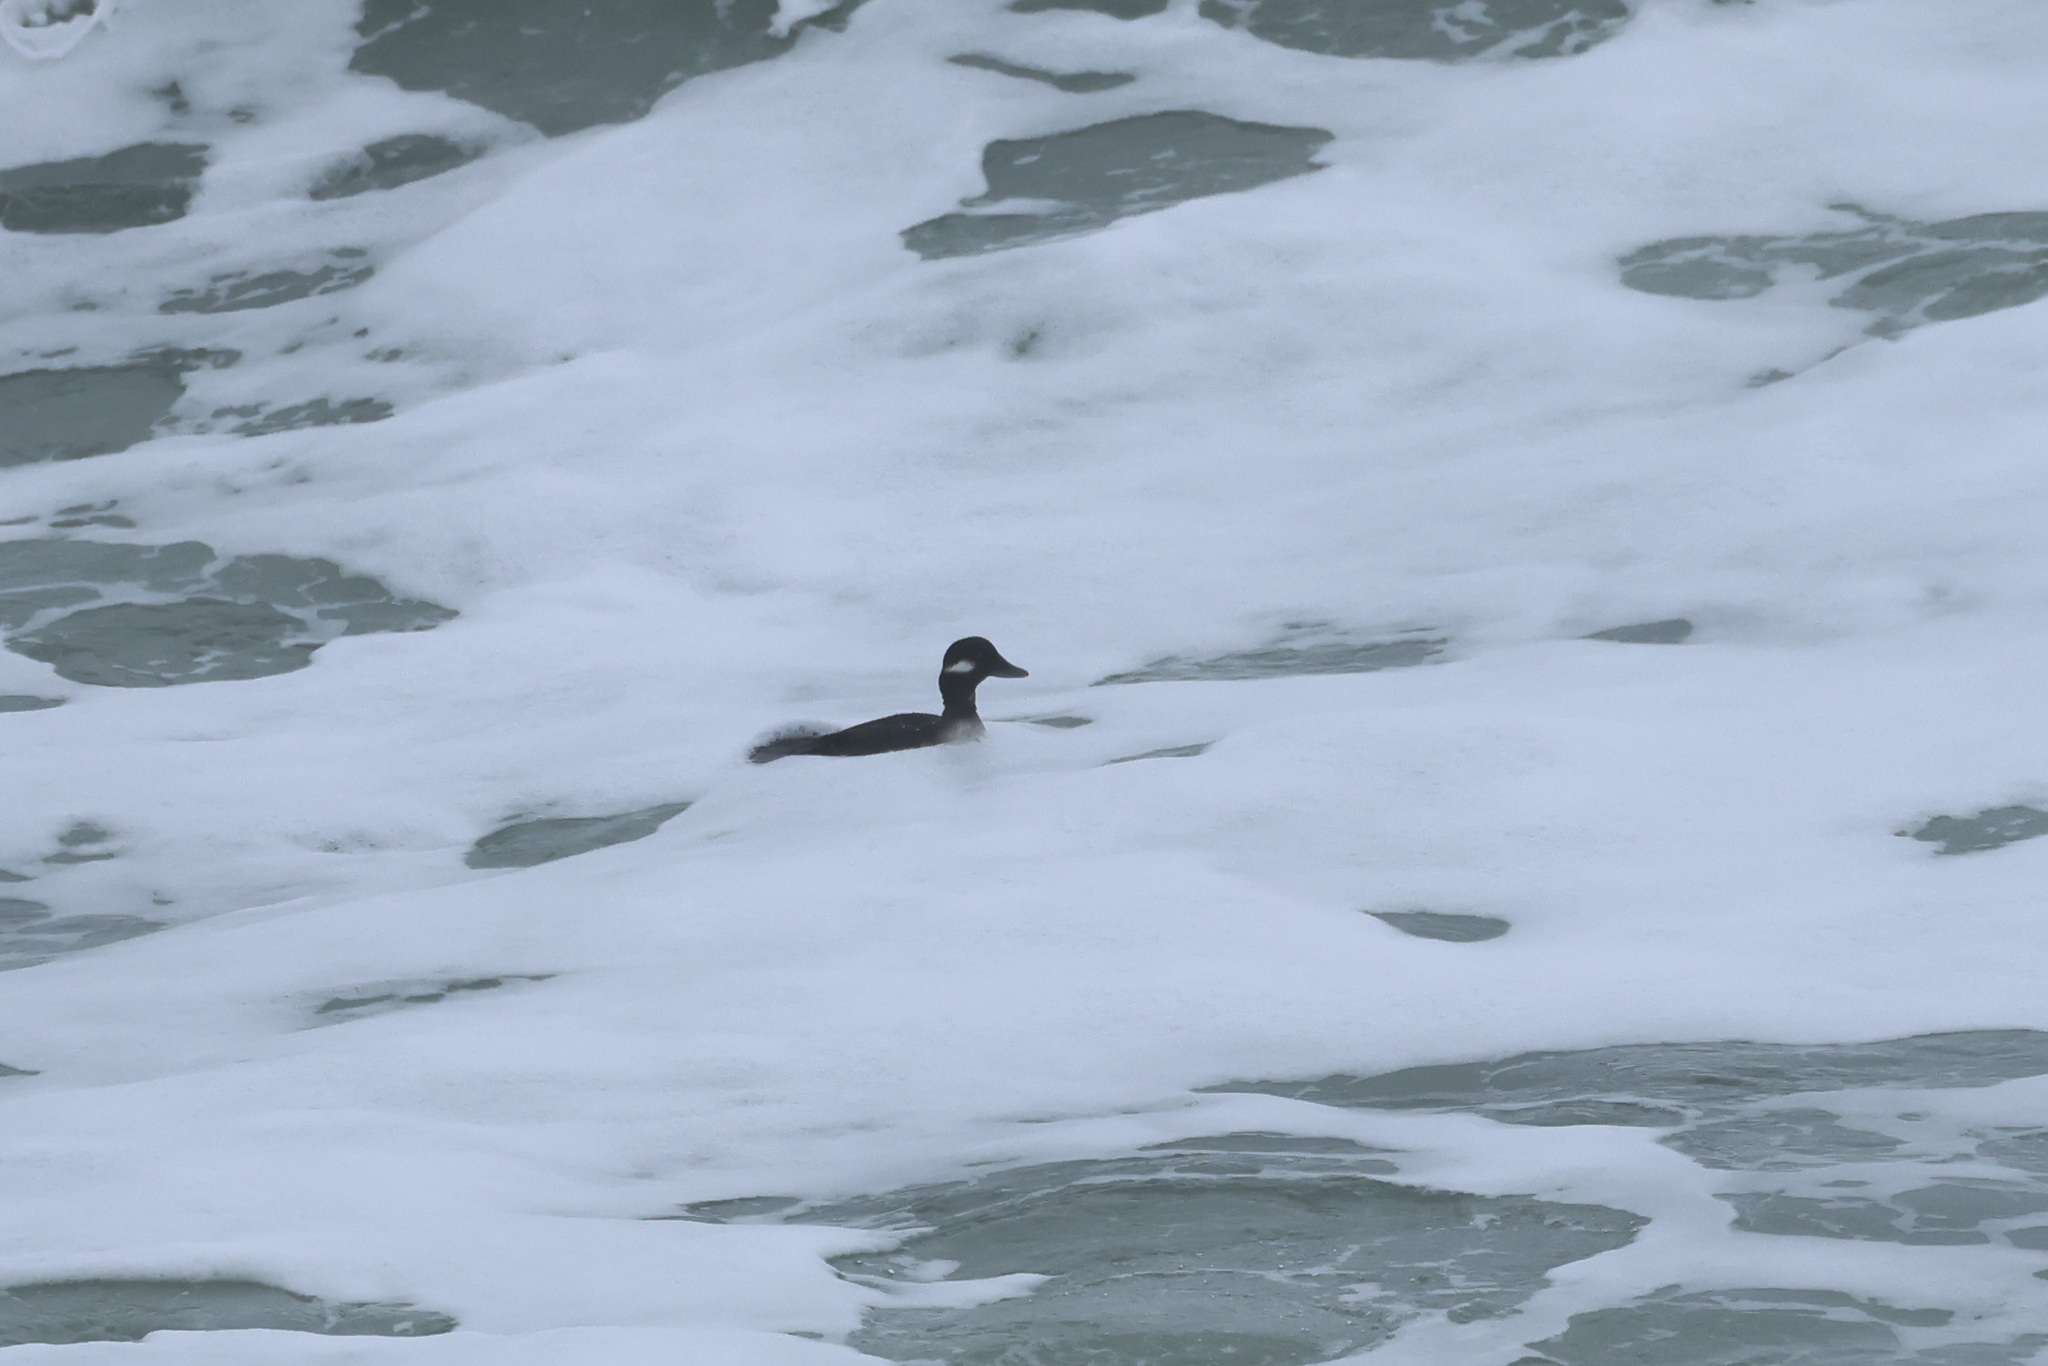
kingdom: Animalia
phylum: Chordata
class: Aves
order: Anseriformes
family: Anatidae
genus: Bucephala
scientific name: Bucephala albeola
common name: Bufflehead
